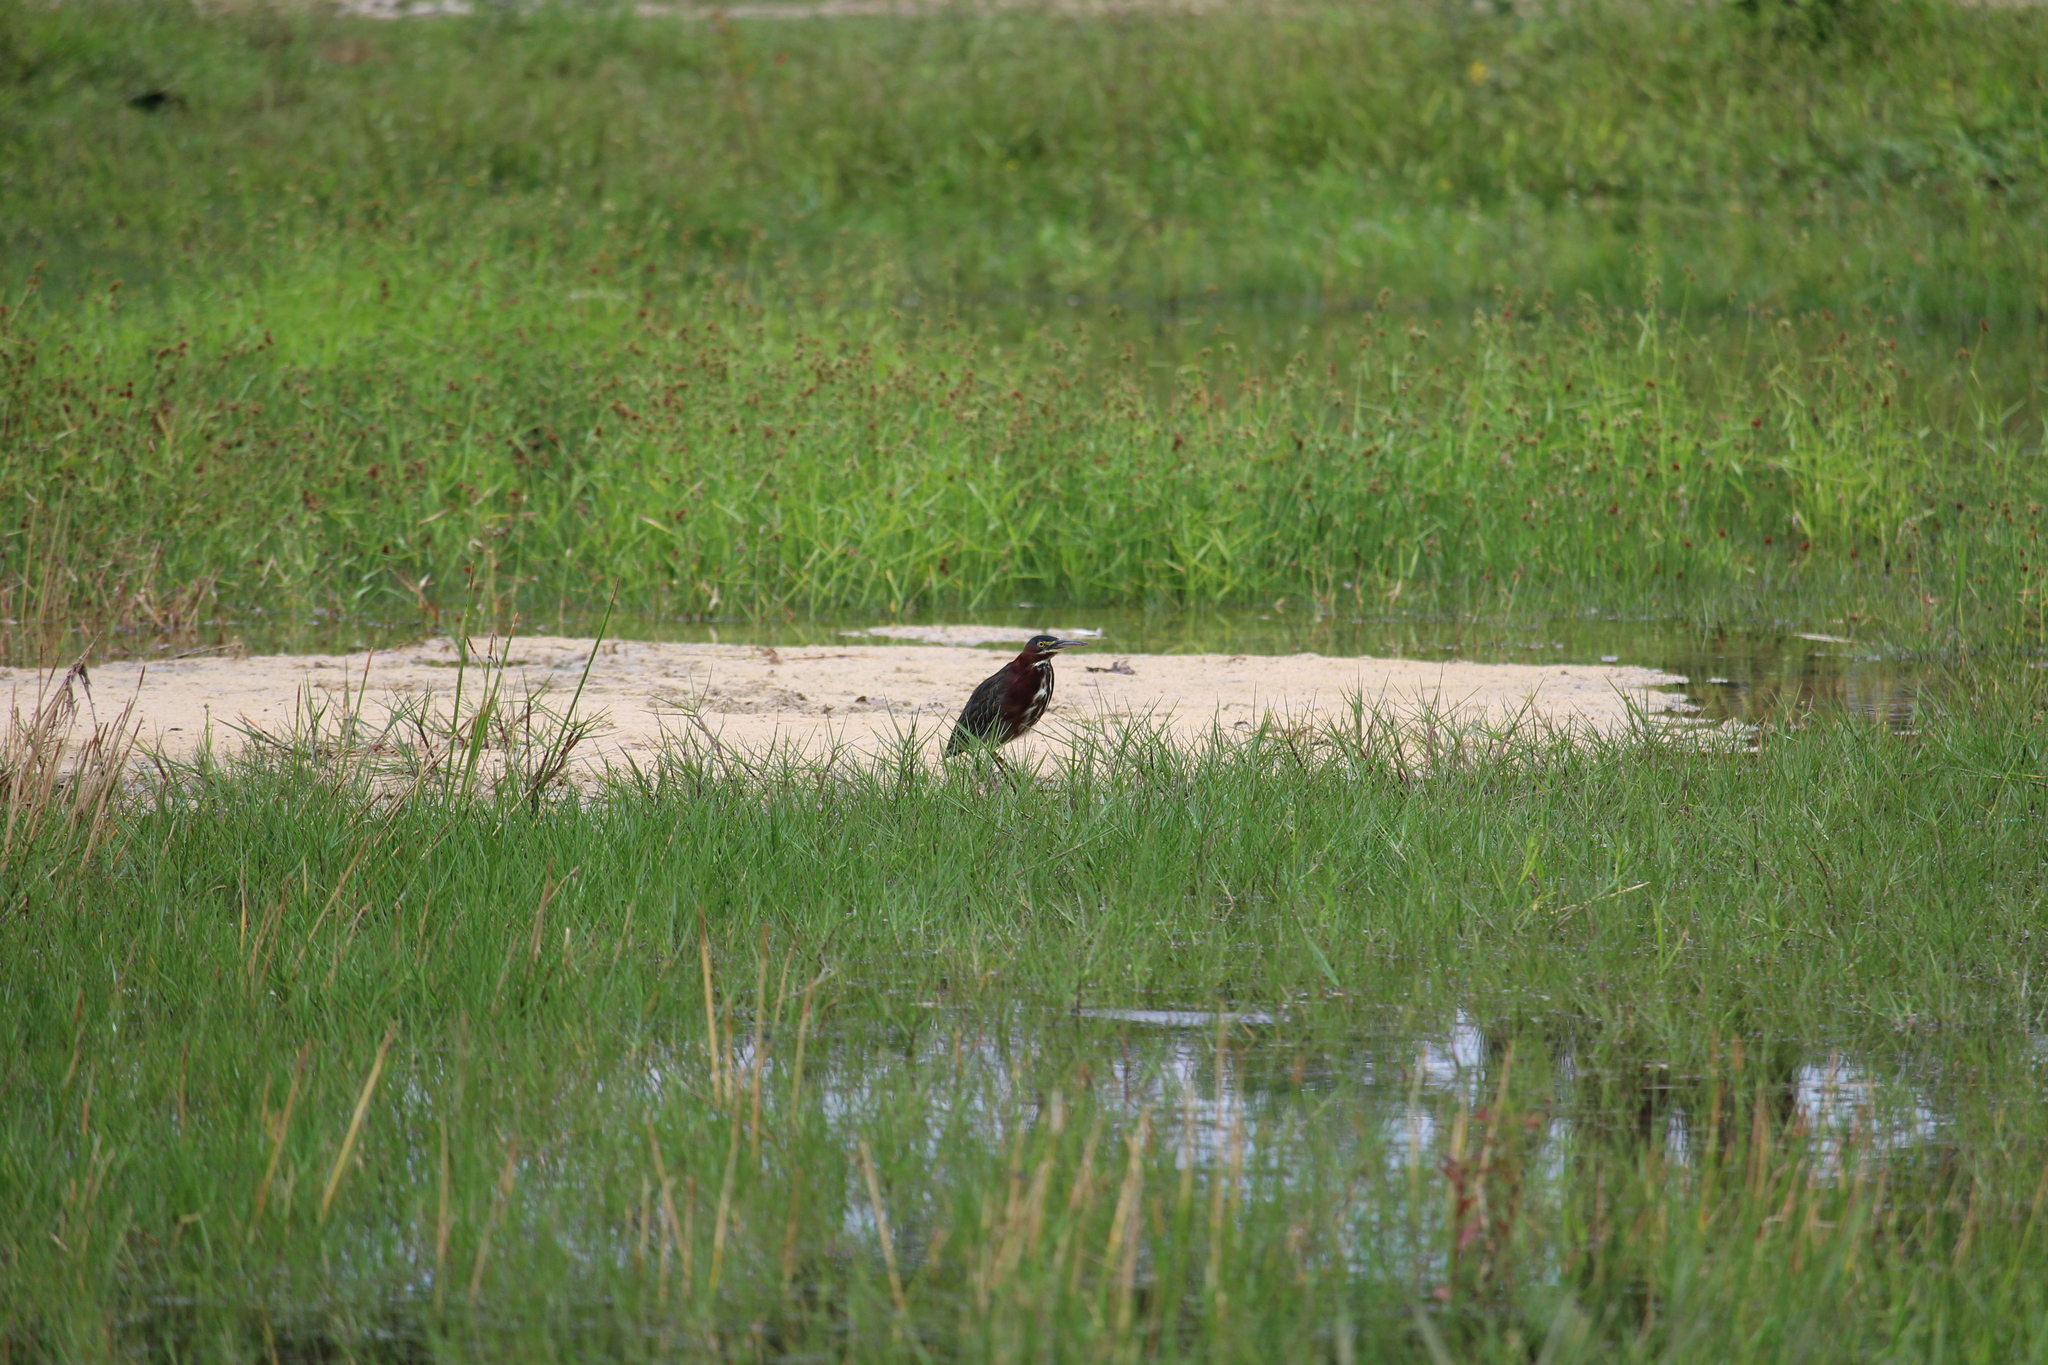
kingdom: Animalia
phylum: Chordata
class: Aves
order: Pelecaniformes
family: Ardeidae
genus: Butorides
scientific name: Butorides virescens
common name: Green heron
